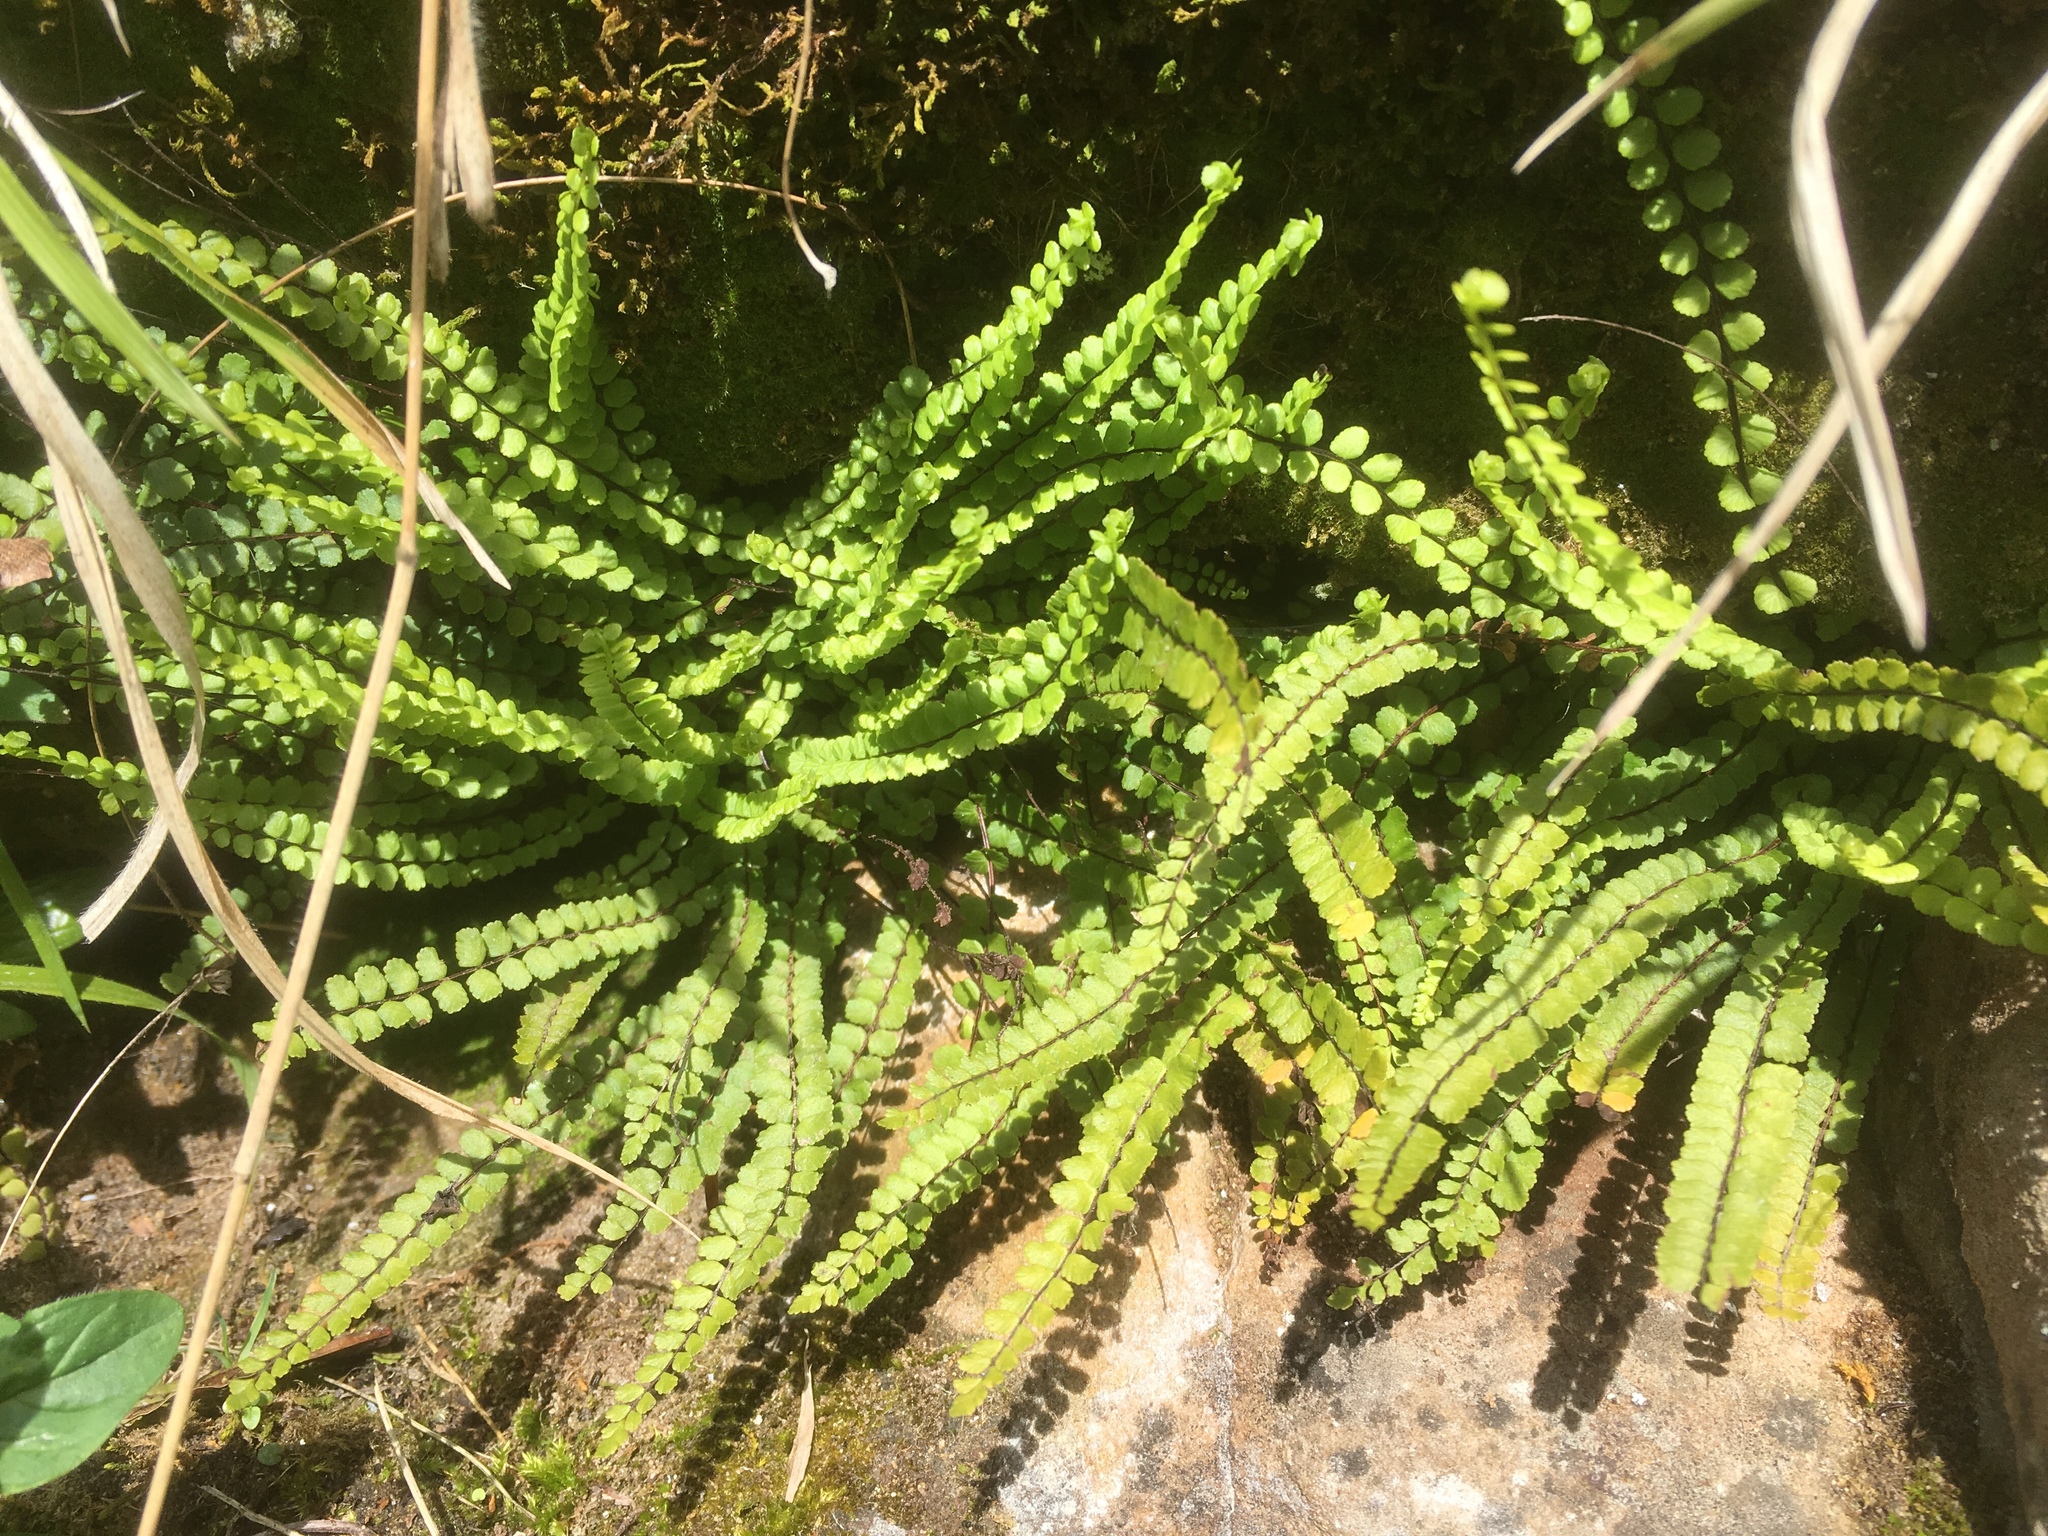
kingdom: Plantae
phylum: Tracheophyta
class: Polypodiopsida
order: Polypodiales
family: Aspleniaceae
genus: Asplenium
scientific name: Asplenium trichomanes
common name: Maidenhair spleenwort
